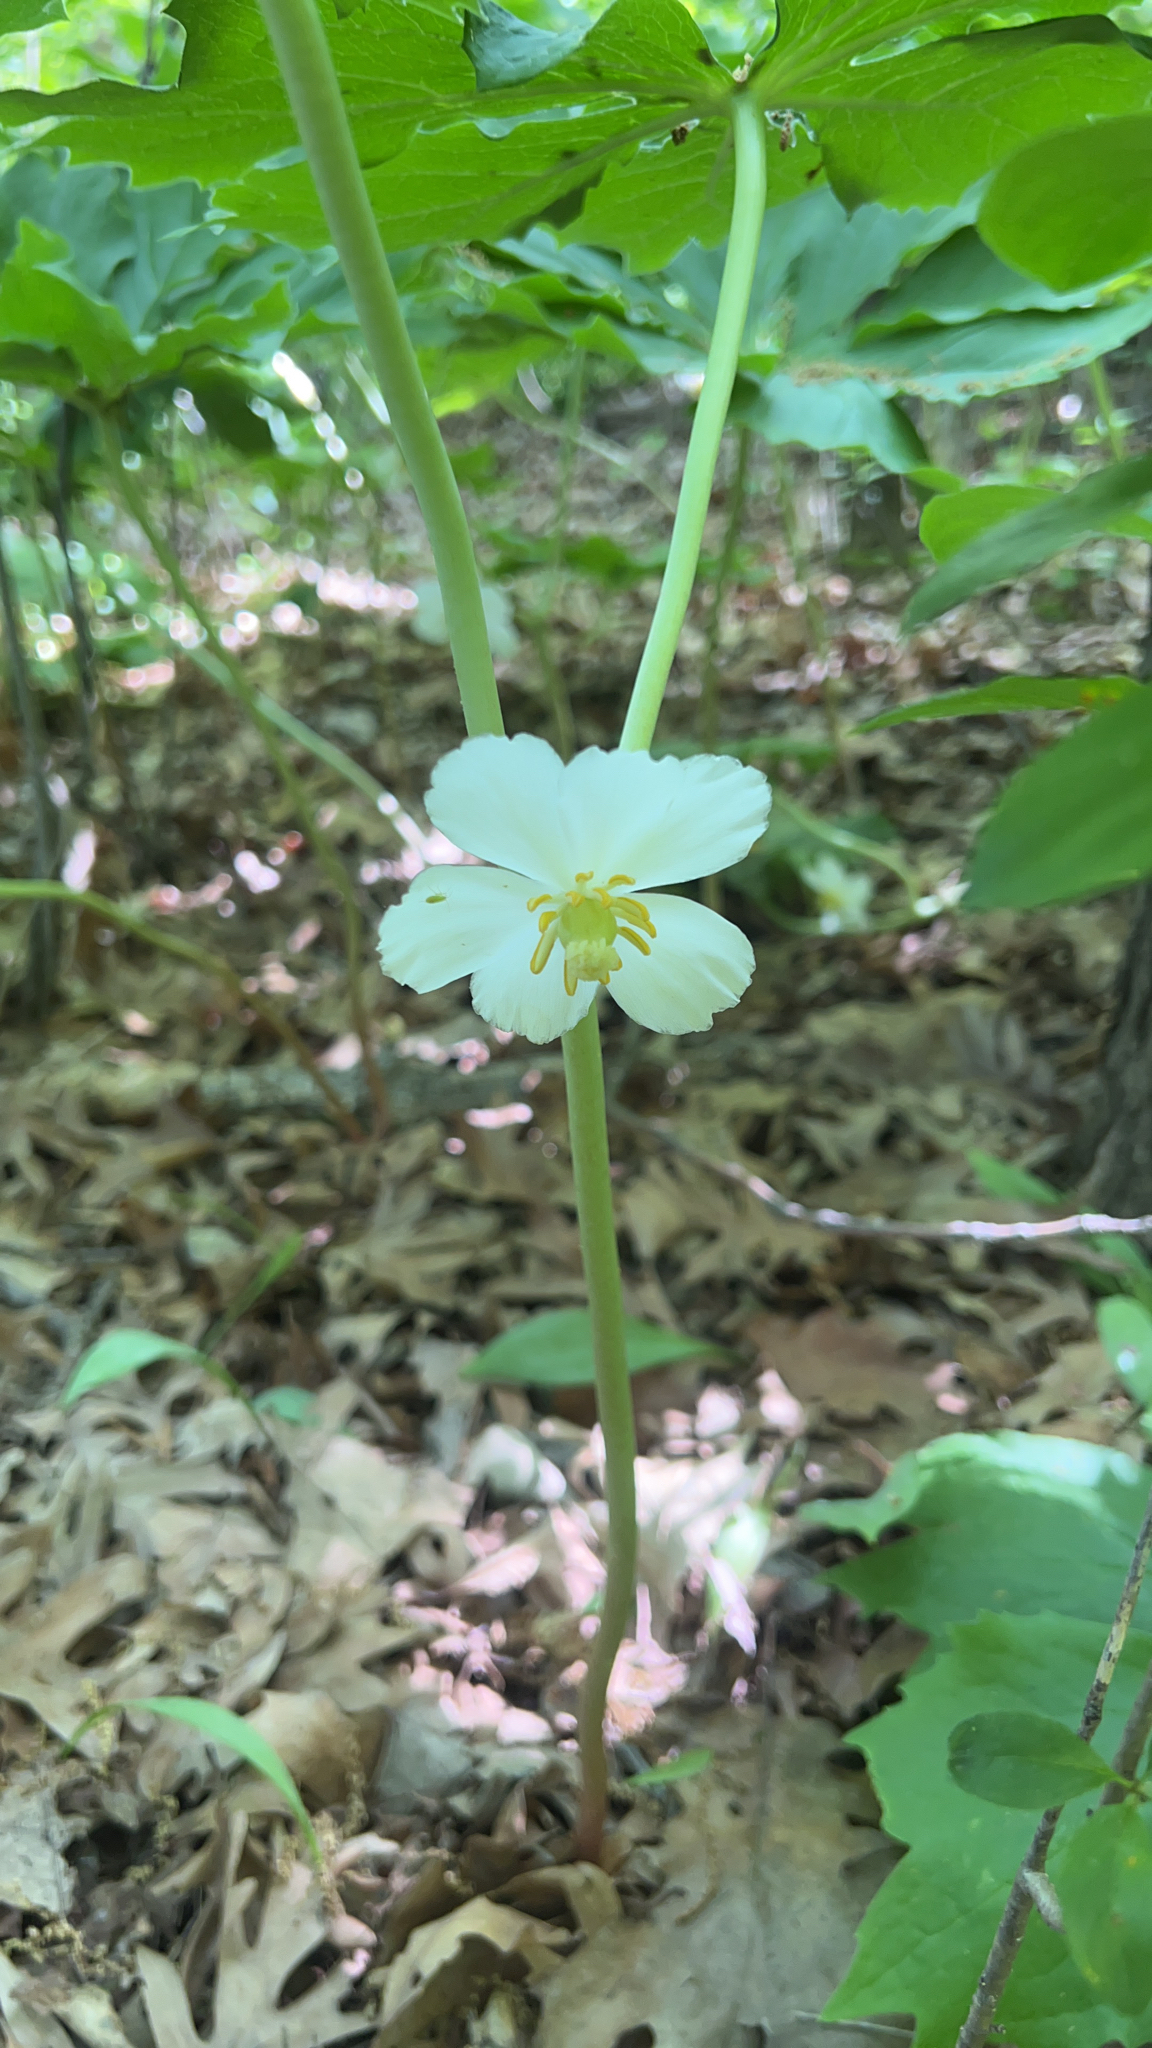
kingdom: Plantae
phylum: Tracheophyta
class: Magnoliopsida
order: Ranunculales
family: Berberidaceae
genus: Podophyllum
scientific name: Podophyllum peltatum
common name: Wild mandrake
